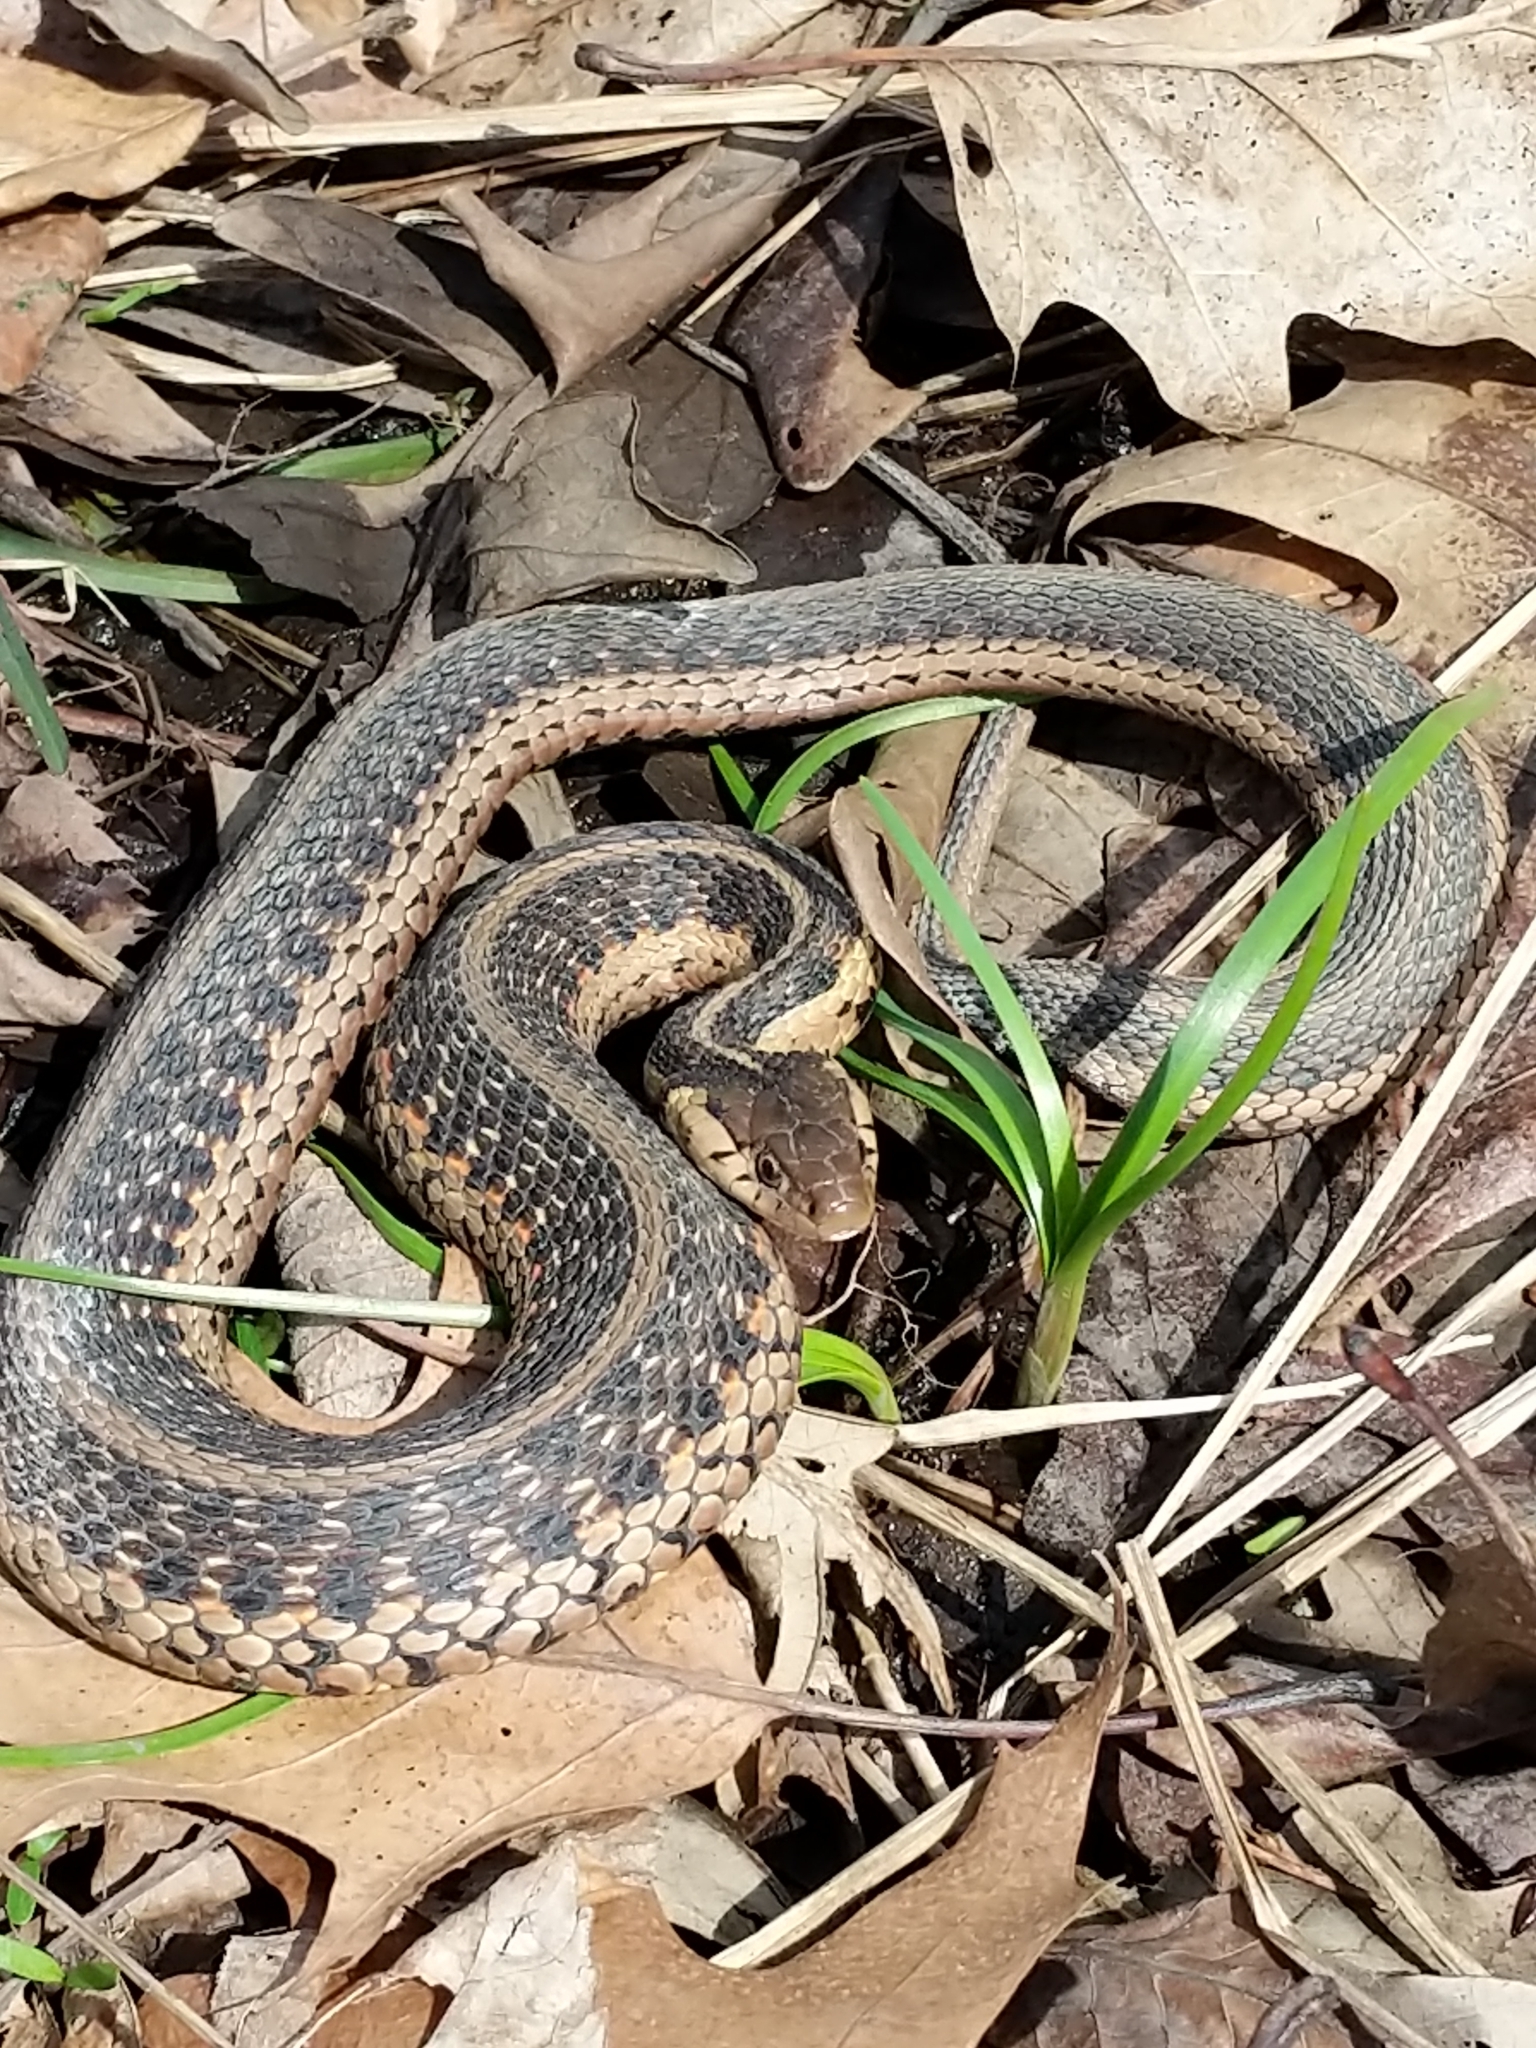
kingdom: Animalia
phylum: Chordata
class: Squamata
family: Colubridae
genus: Thamnophis
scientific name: Thamnophis sirtalis
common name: Common garter snake
